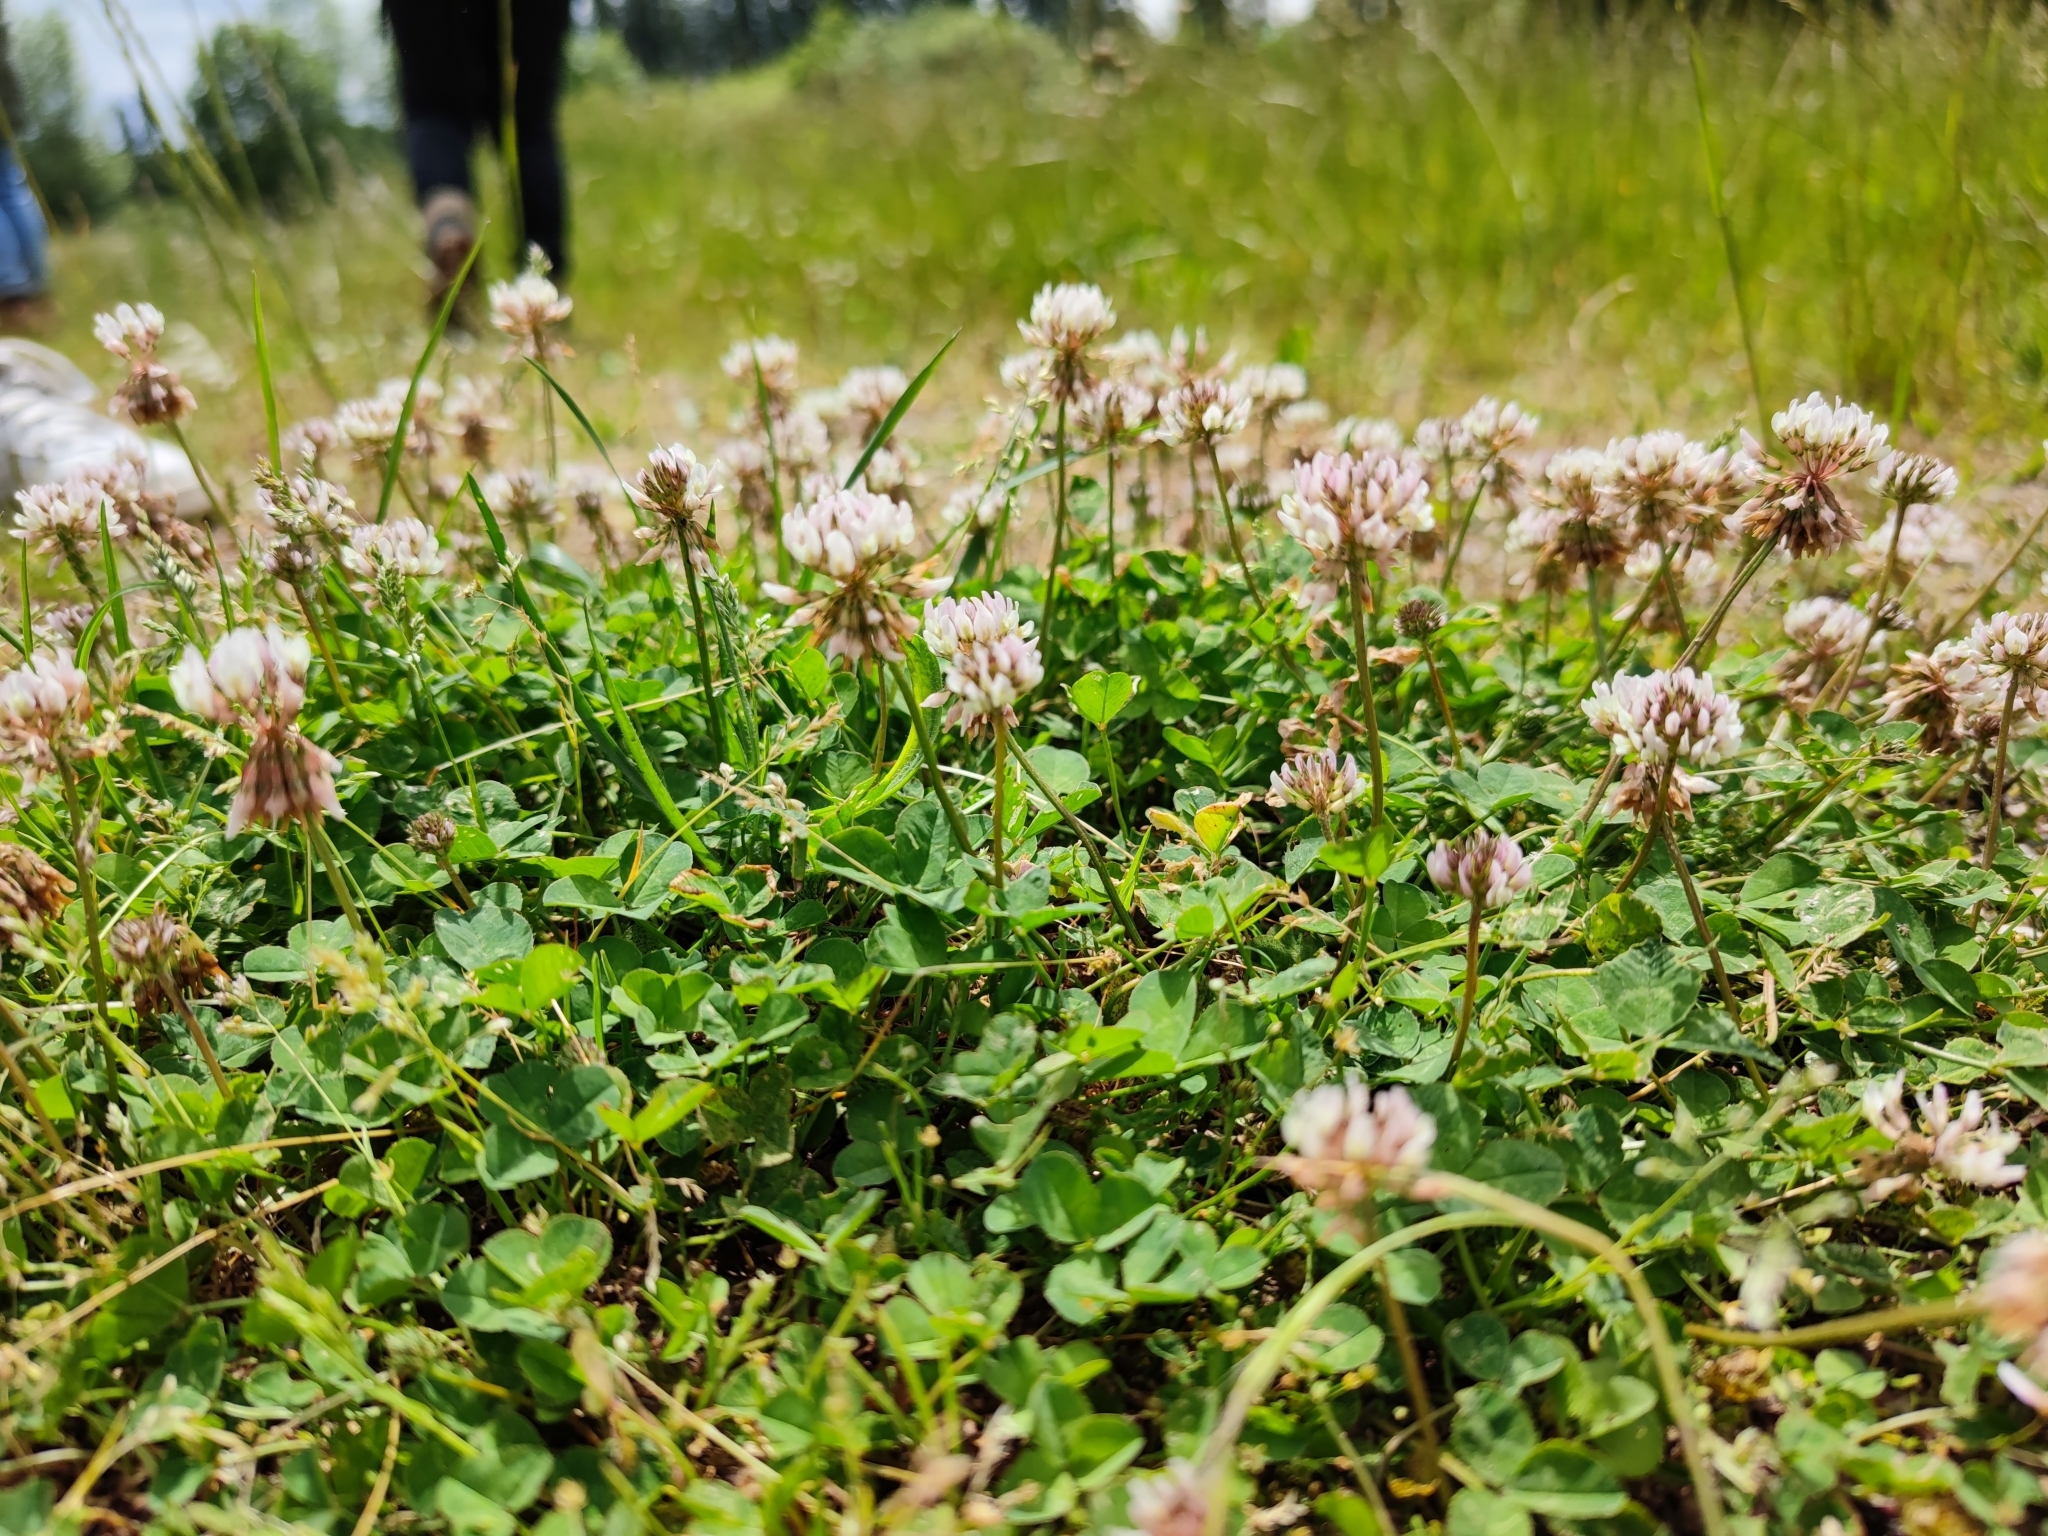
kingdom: Plantae
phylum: Tracheophyta
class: Magnoliopsida
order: Fabales
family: Fabaceae
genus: Trifolium
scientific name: Trifolium repens
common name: White clover
